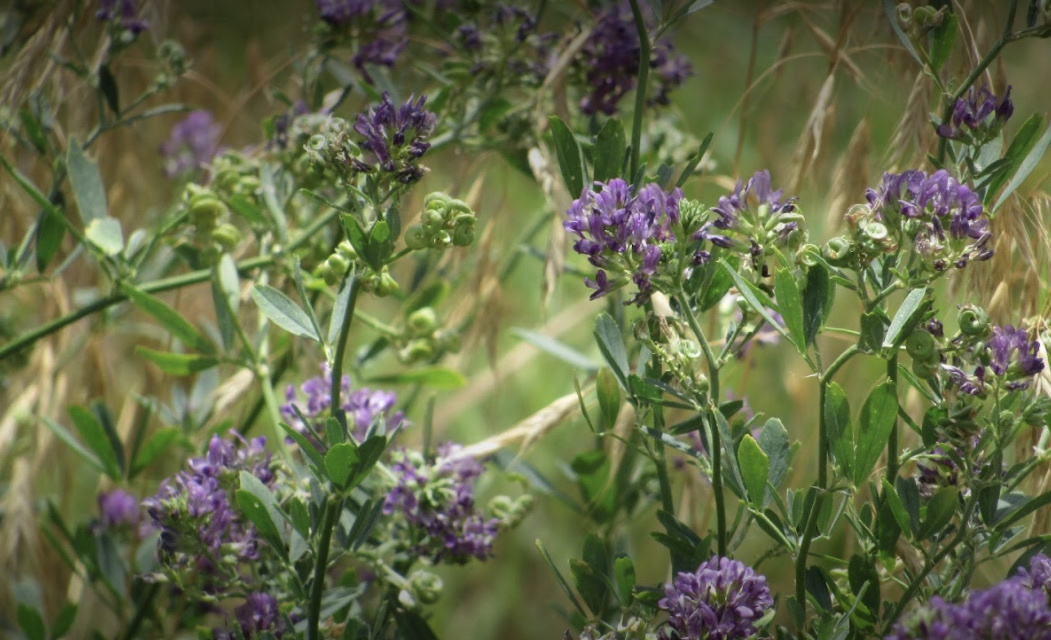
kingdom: Plantae
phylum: Tracheophyta
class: Magnoliopsida
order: Fabales
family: Fabaceae
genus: Medicago
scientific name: Medicago sativa
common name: Alfalfa
